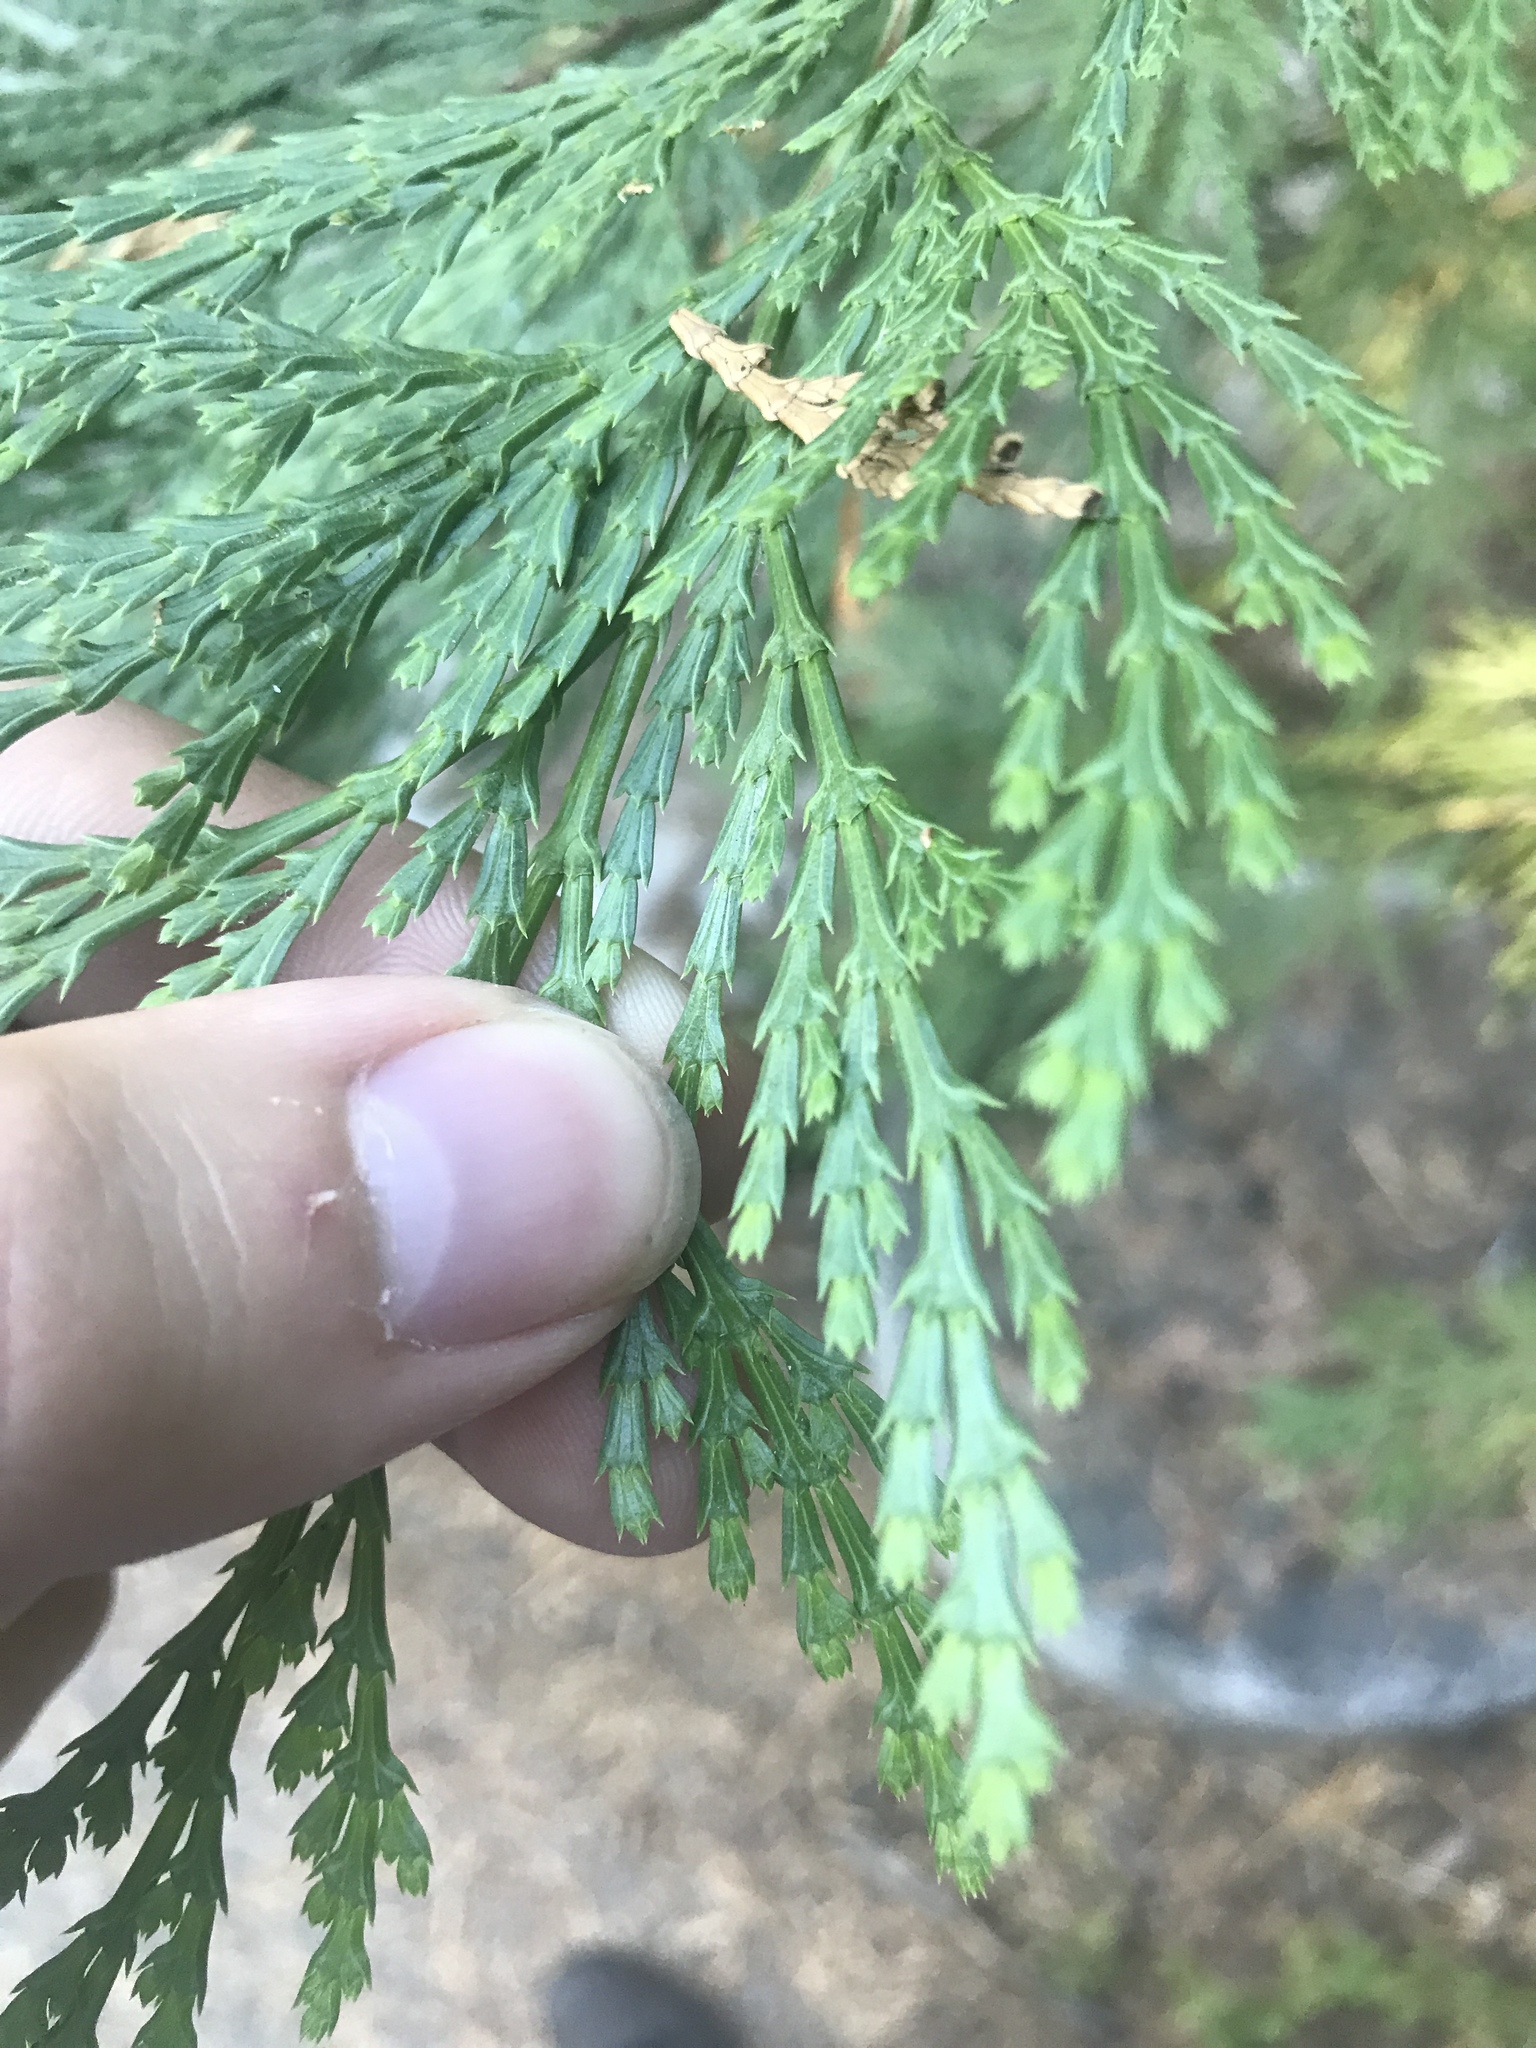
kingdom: Plantae
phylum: Tracheophyta
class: Pinopsida
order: Pinales
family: Cupressaceae
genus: Calocedrus
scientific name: Calocedrus decurrens
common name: Californian incense-cedar
